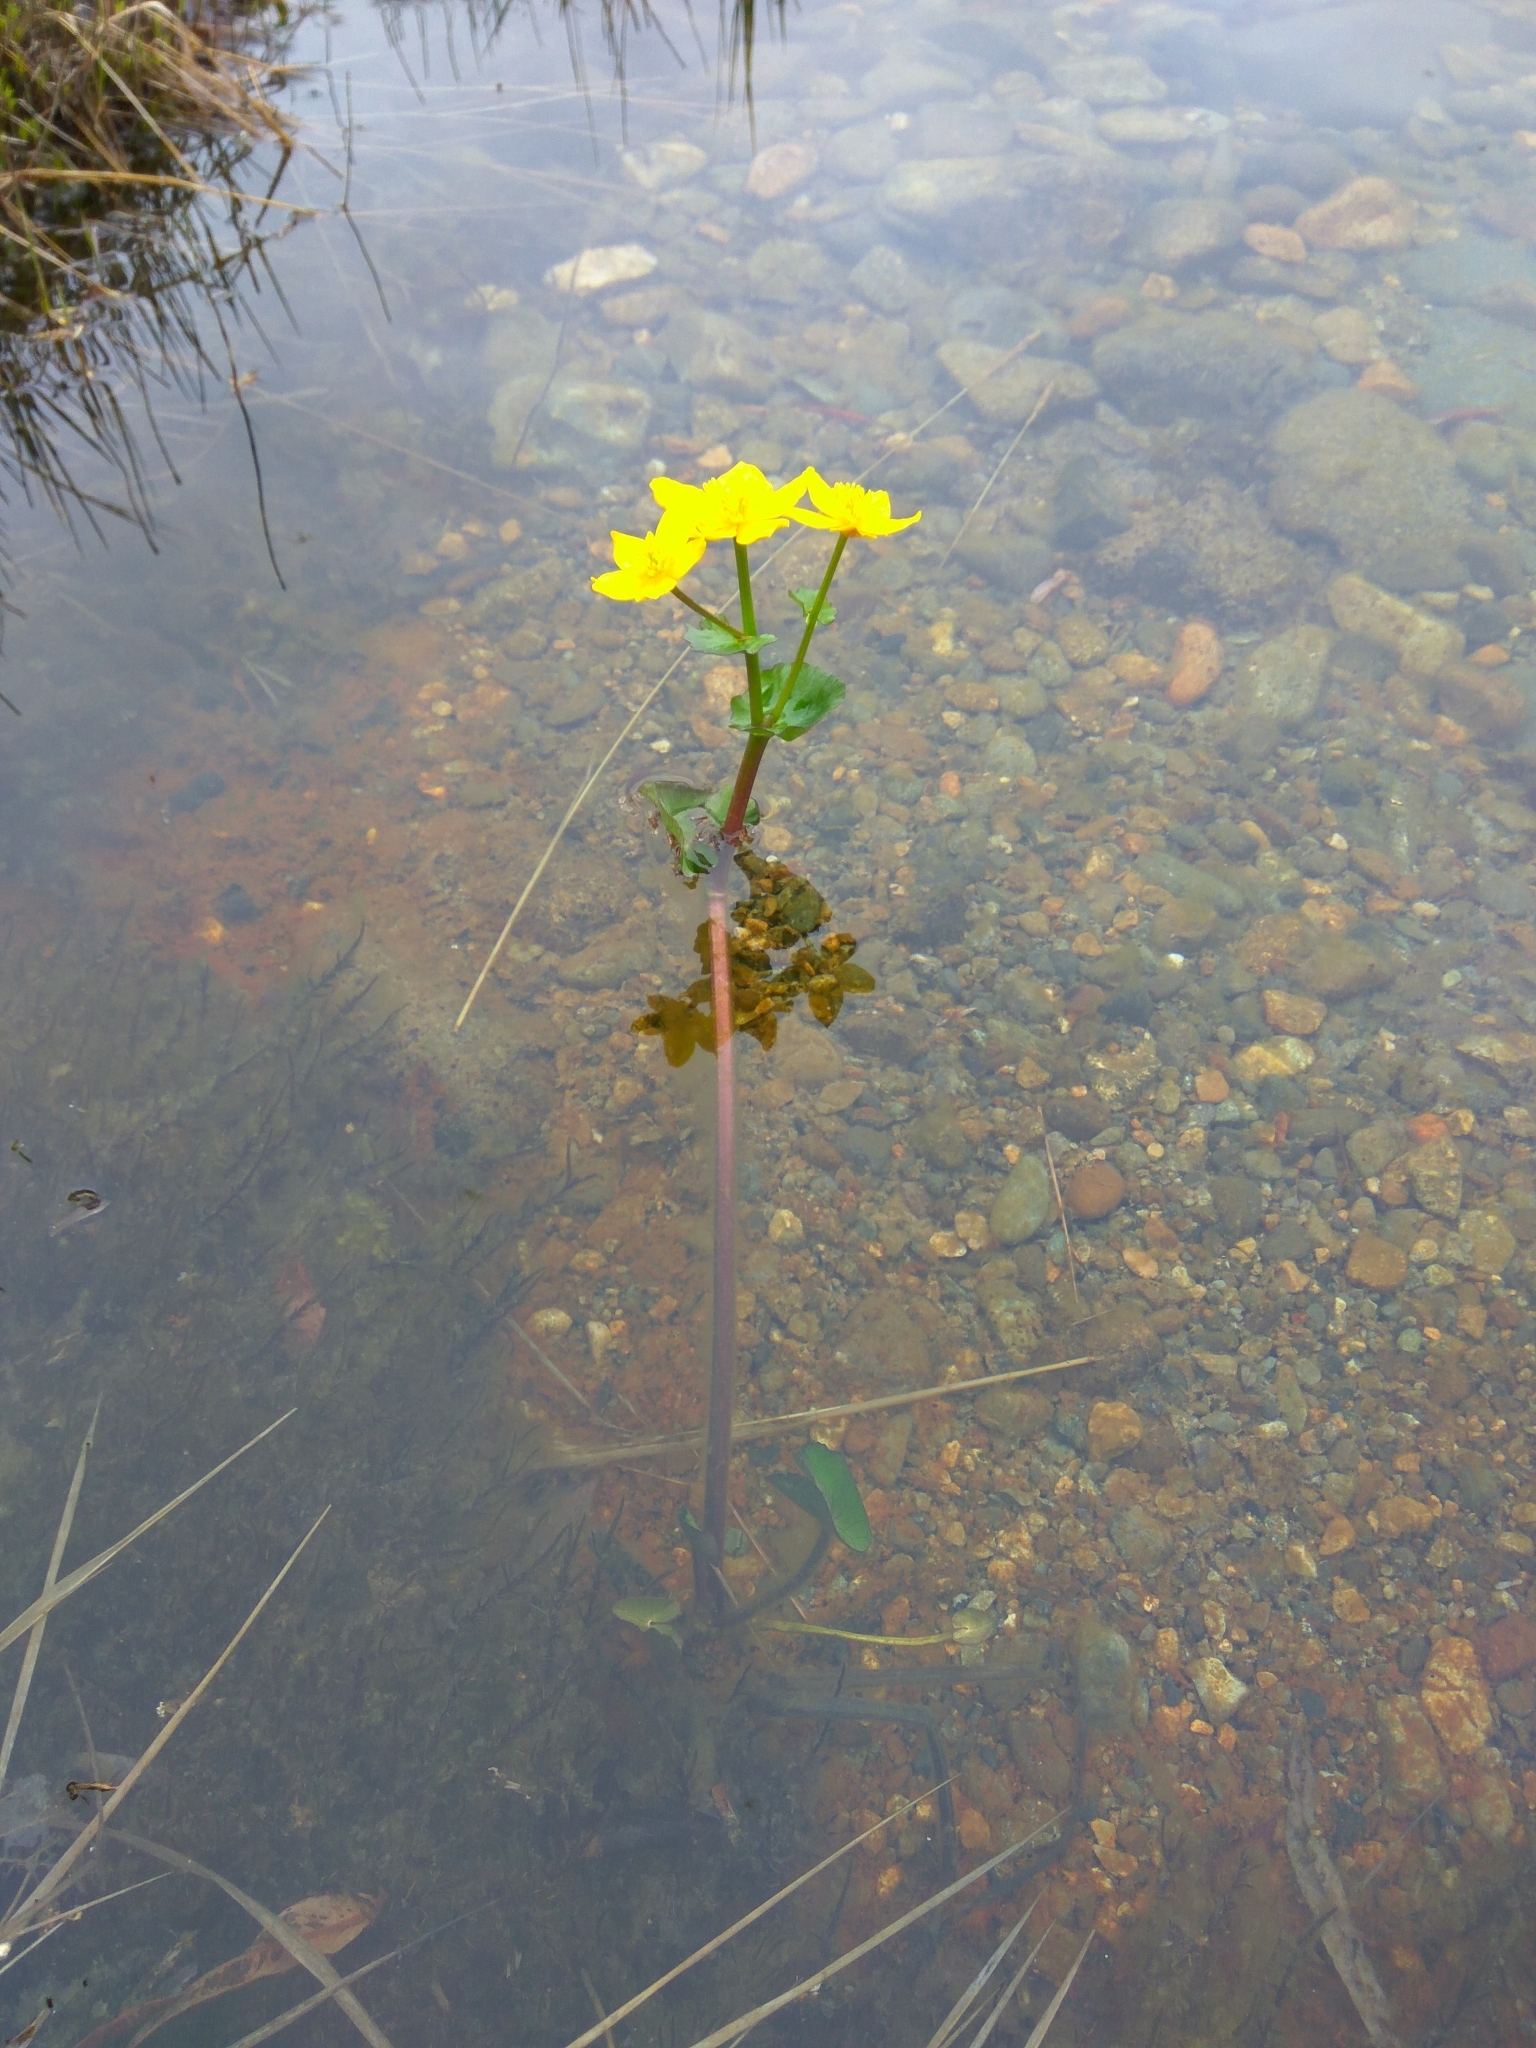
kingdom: Plantae
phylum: Tracheophyta
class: Magnoliopsida
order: Ranunculales
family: Ranunculaceae
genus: Caltha
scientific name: Caltha palustris
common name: Marsh marigold
